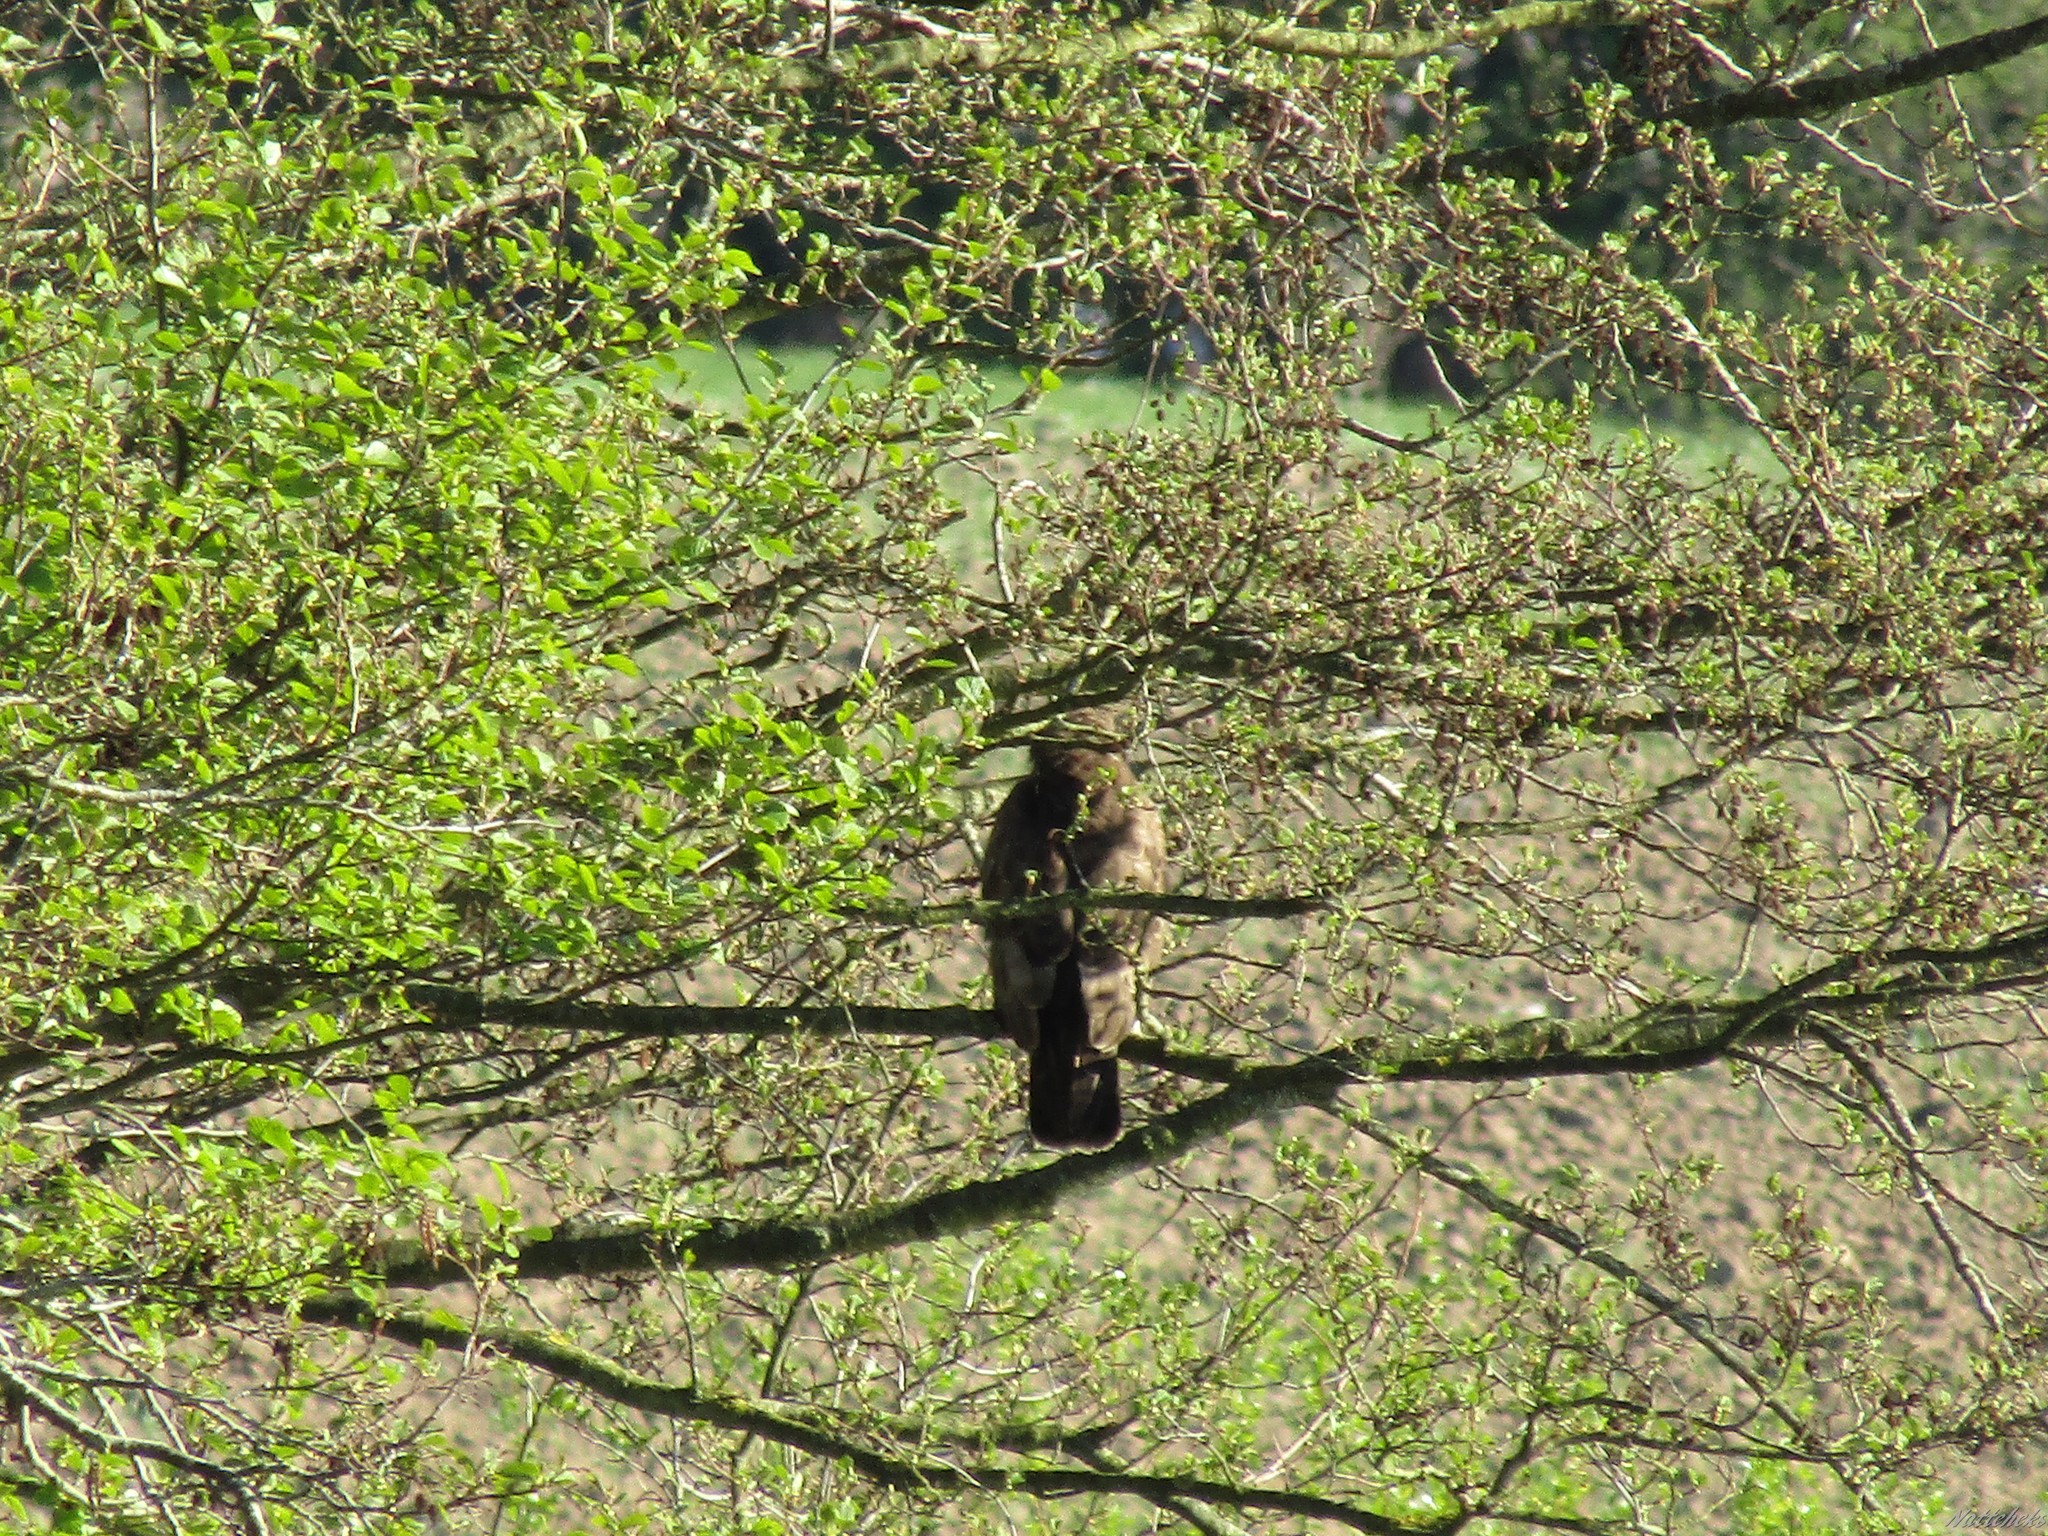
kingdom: Animalia
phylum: Chordata
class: Aves
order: Accipitriformes
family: Accipitridae
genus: Buteo
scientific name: Buteo buteo
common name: Common buzzard
